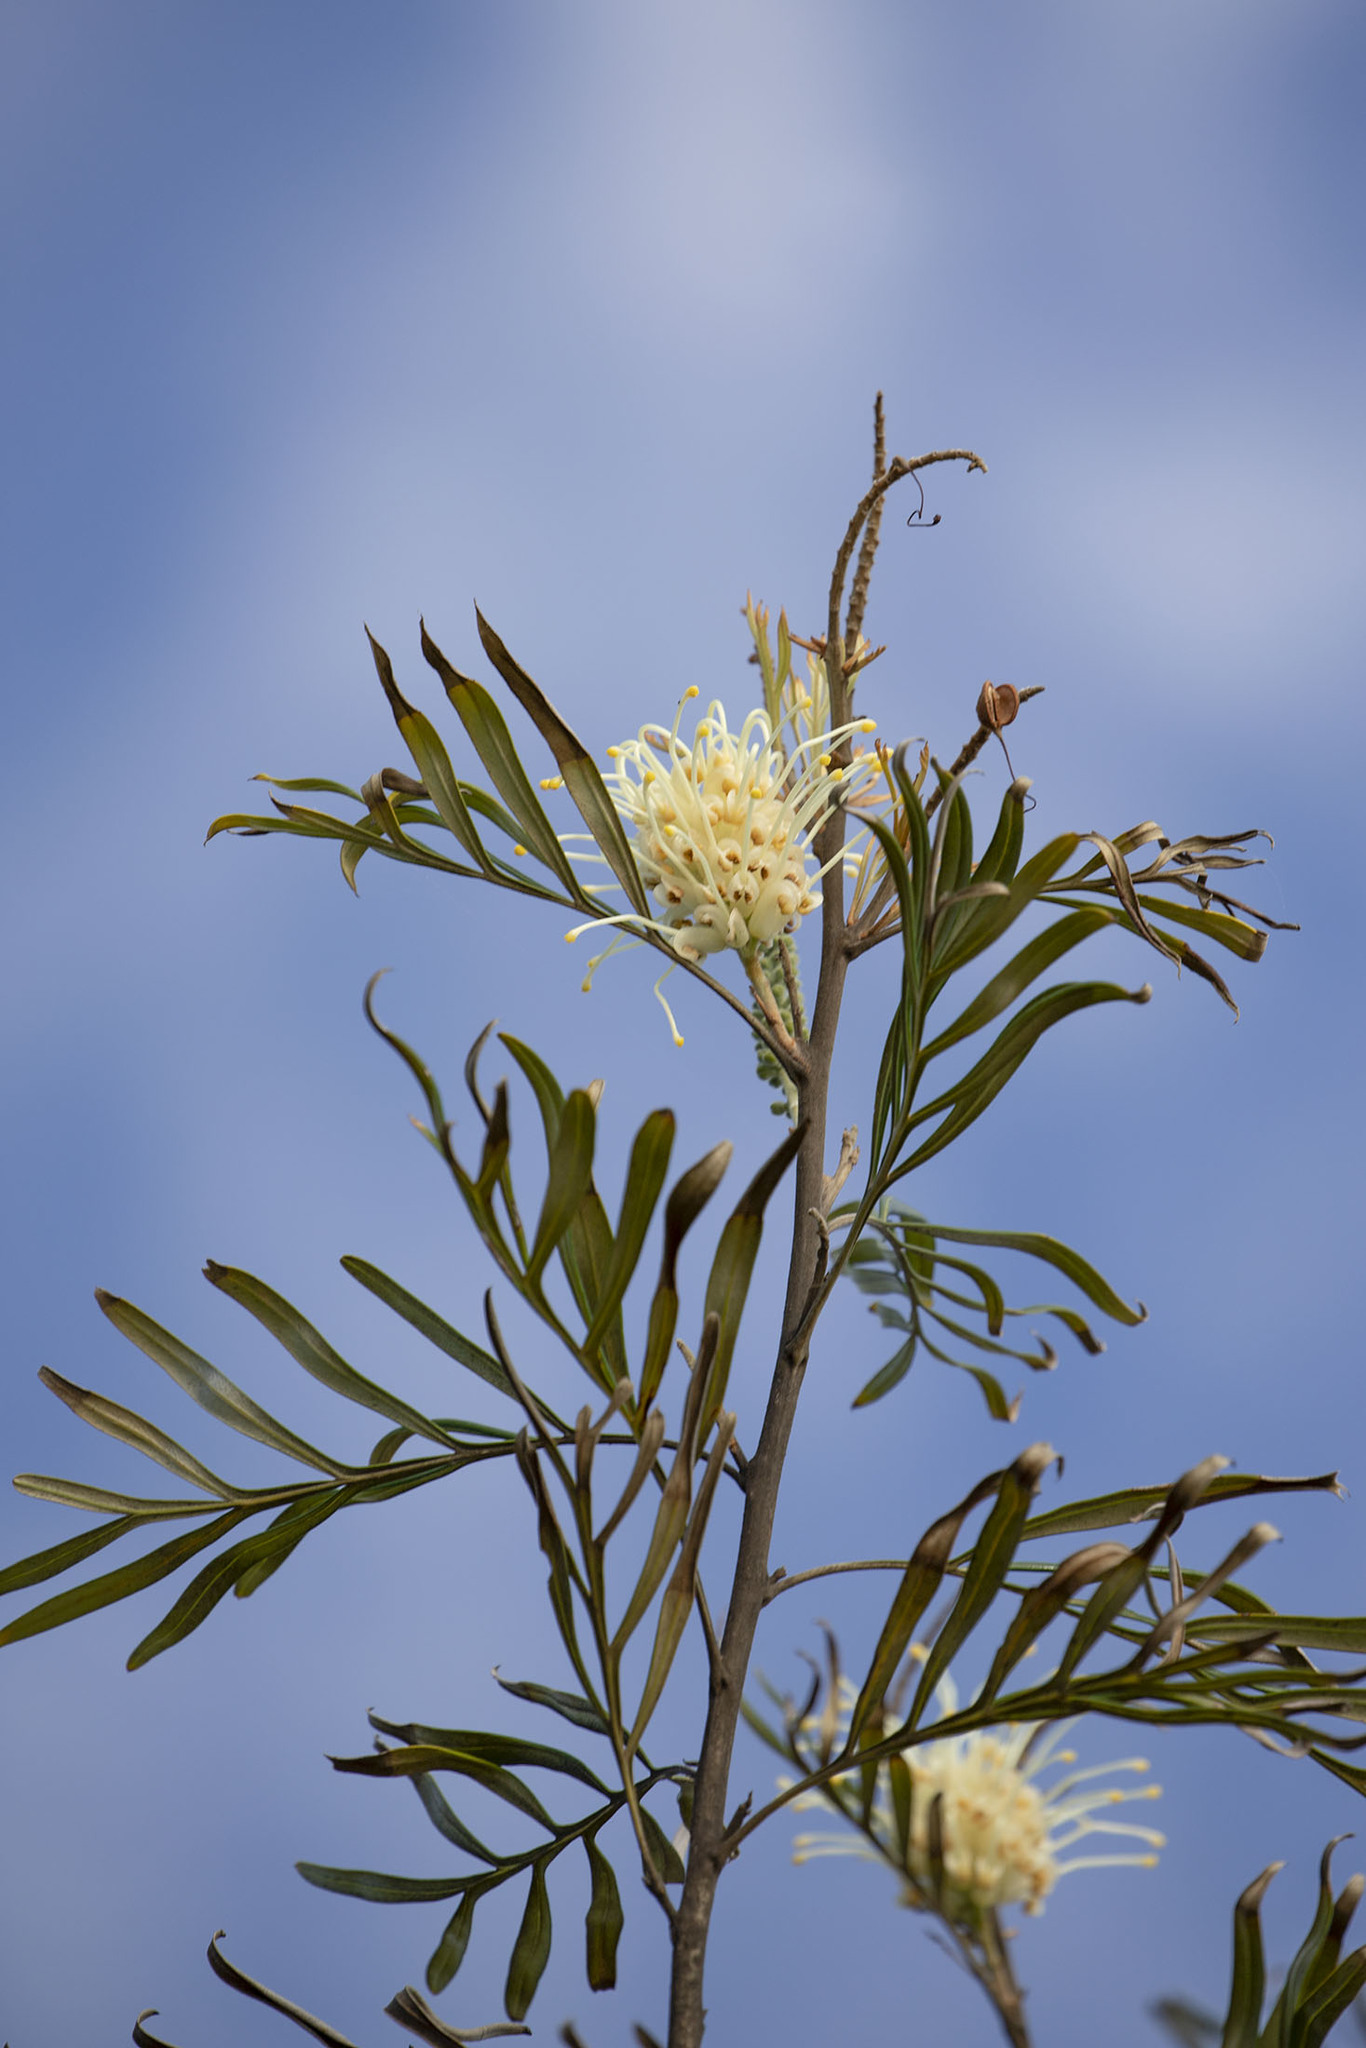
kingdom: Plantae
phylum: Tracheophyta
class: Magnoliopsida
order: Proteales
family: Proteaceae
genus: Grevillea
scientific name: Grevillea banksii
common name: Kahili flower
